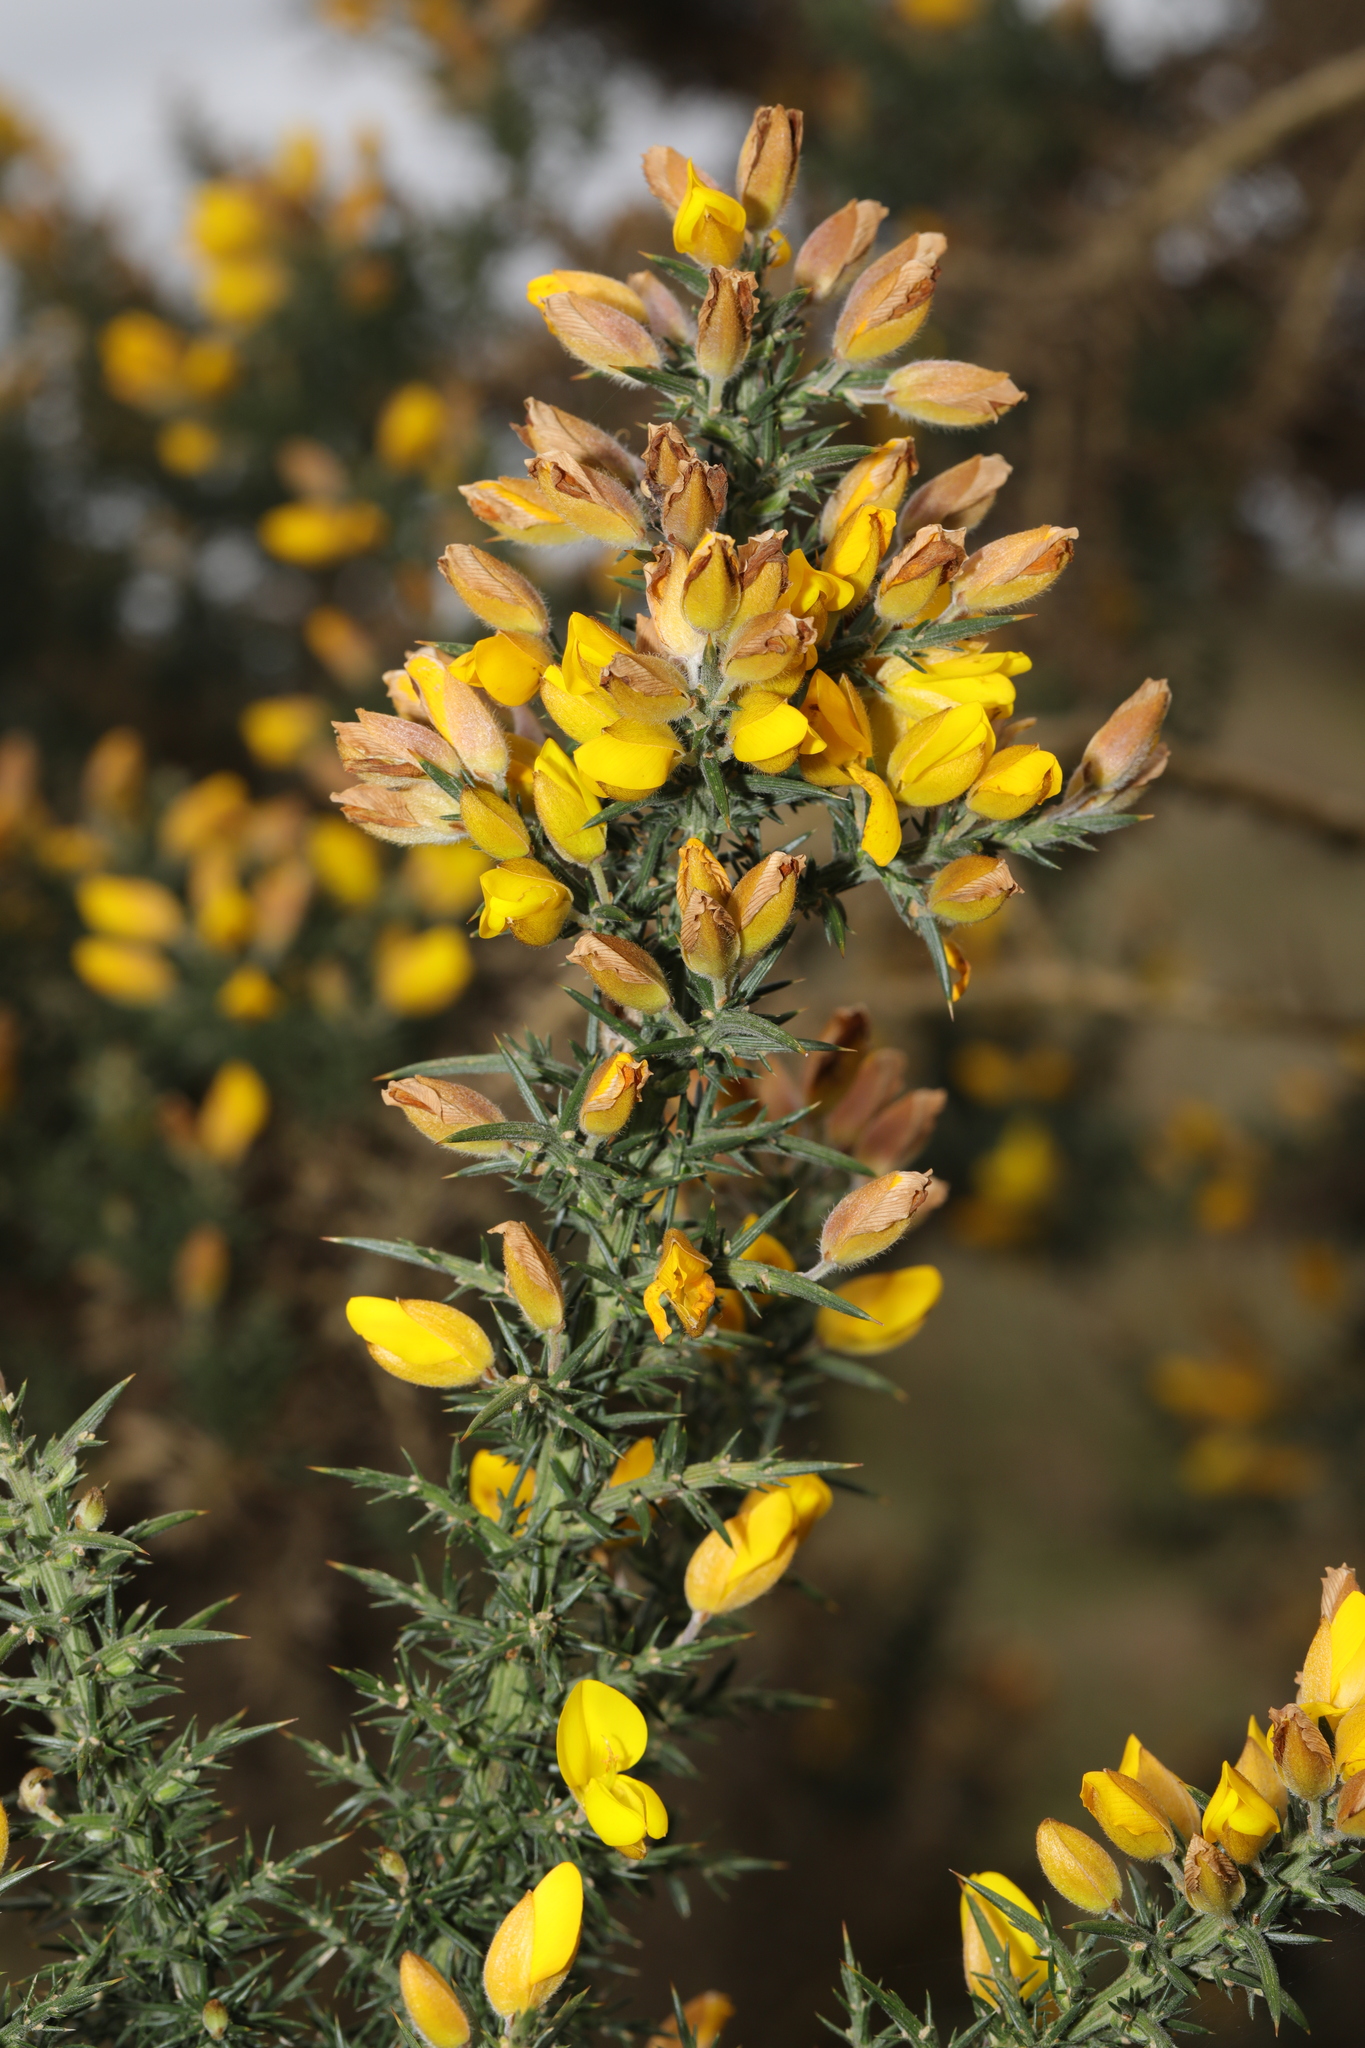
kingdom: Plantae
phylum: Tracheophyta
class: Magnoliopsida
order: Fabales
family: Fabaceae
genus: Ulex
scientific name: Ulex europaeus
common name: Common gorse
